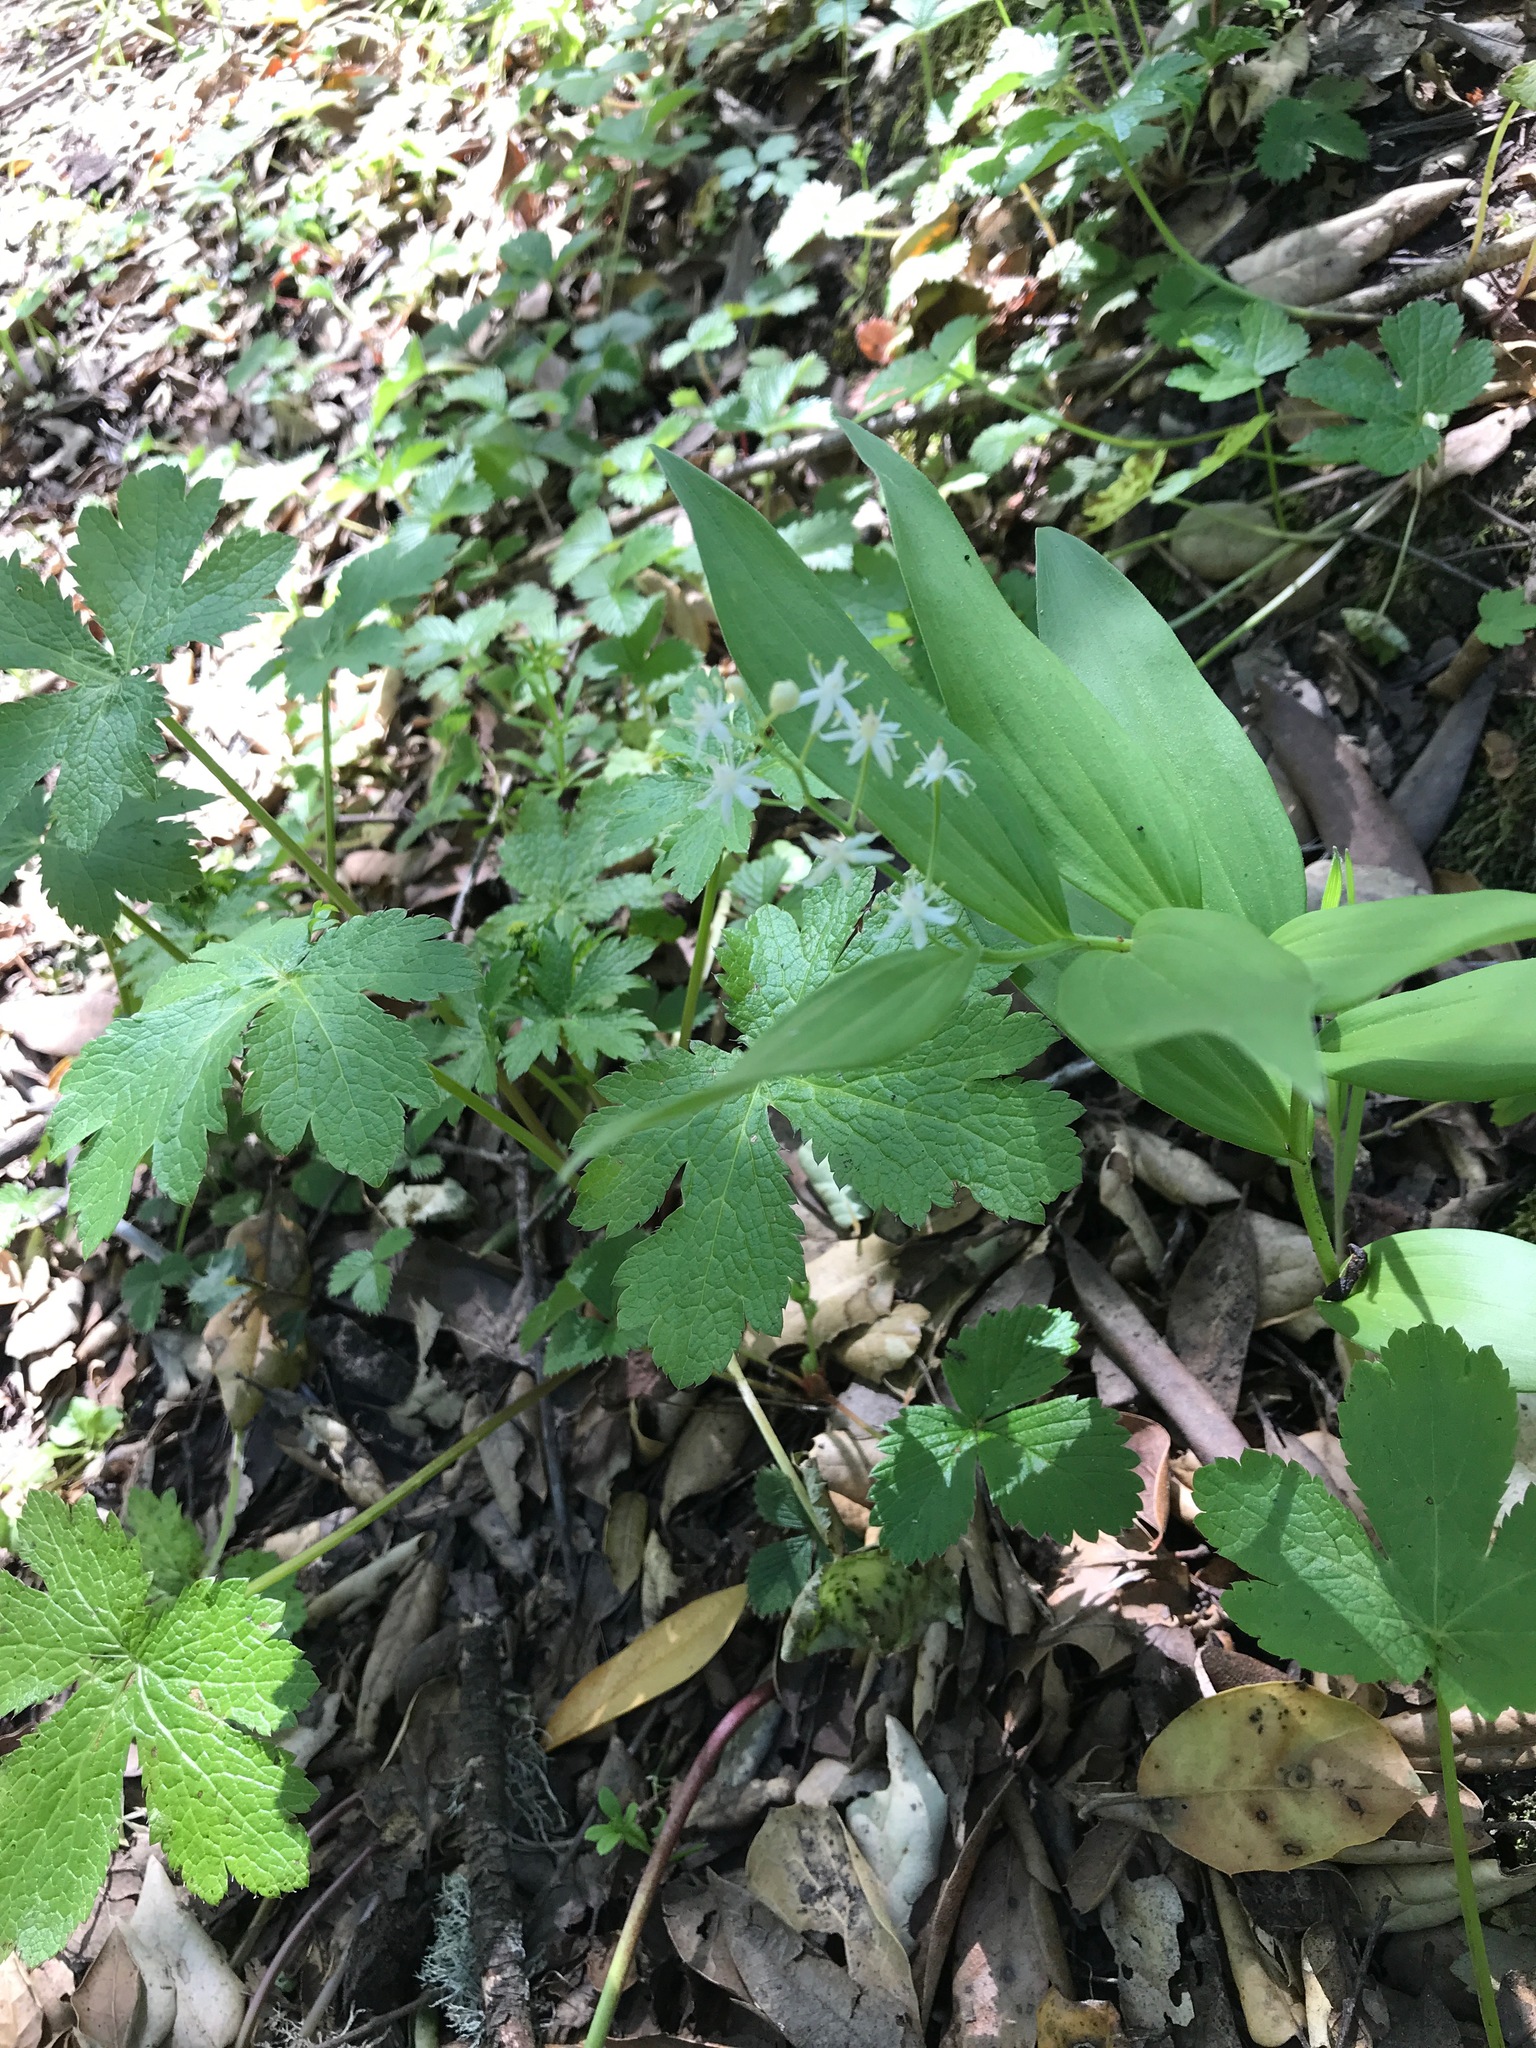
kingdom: Plantae
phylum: Tracheophyta
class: Liliopsida
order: Asparagales
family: Asparagaceae
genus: Maianthemum
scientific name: Maianthemum stellatum
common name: Little false solomon's seal
